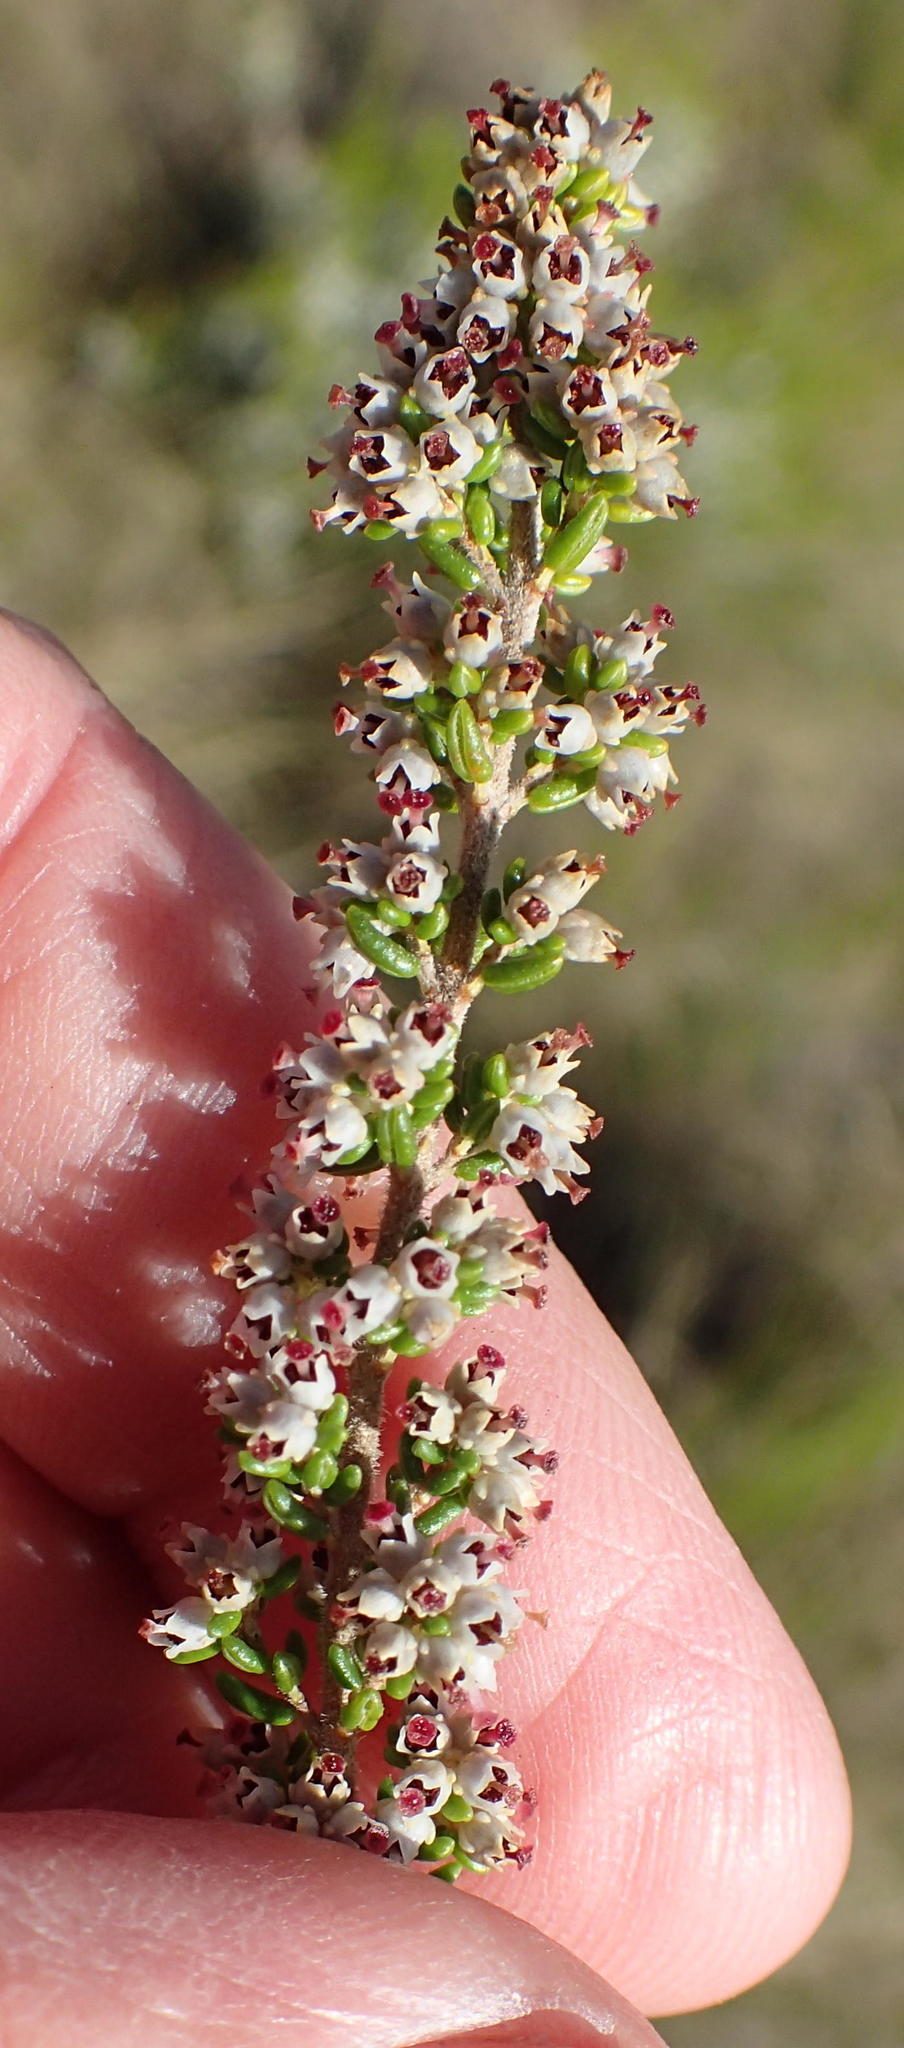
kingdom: Plantae
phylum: Tracheophyta
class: Magnoliopsida
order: Ericales
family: Ericaceae
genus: Erica
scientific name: Erica copiosa
